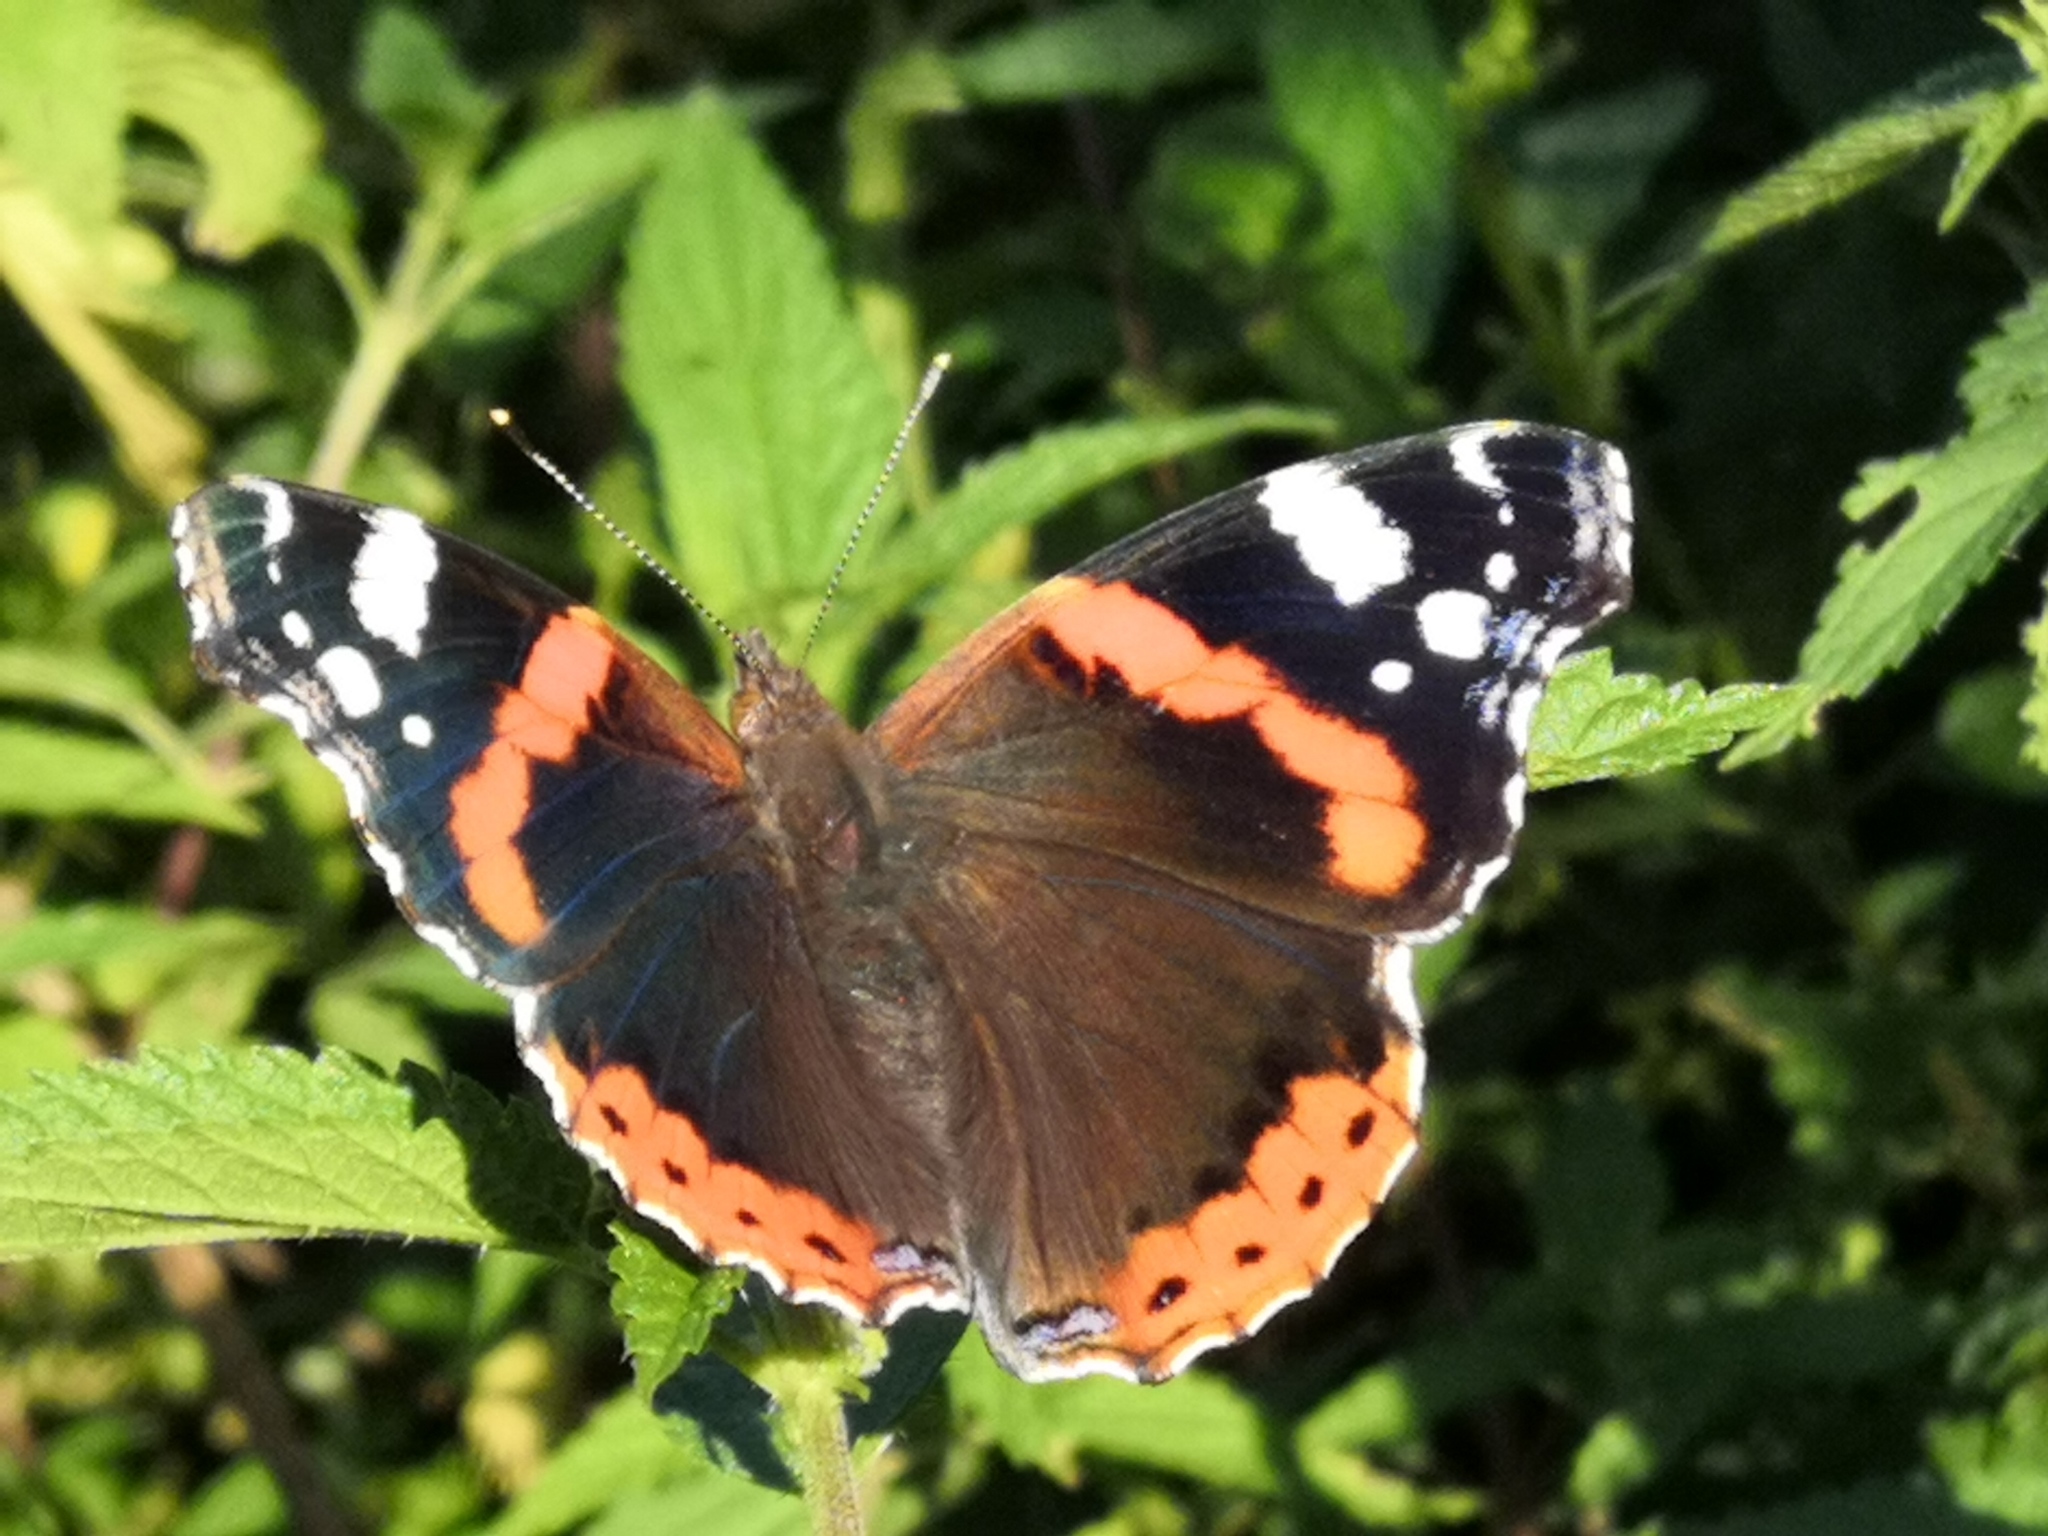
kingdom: Animalia
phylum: Arthropoda
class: Insecta
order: Lepidoptera
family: Nymphalidae
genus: Vanessa
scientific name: Vanessa atalanta
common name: Red admiral
